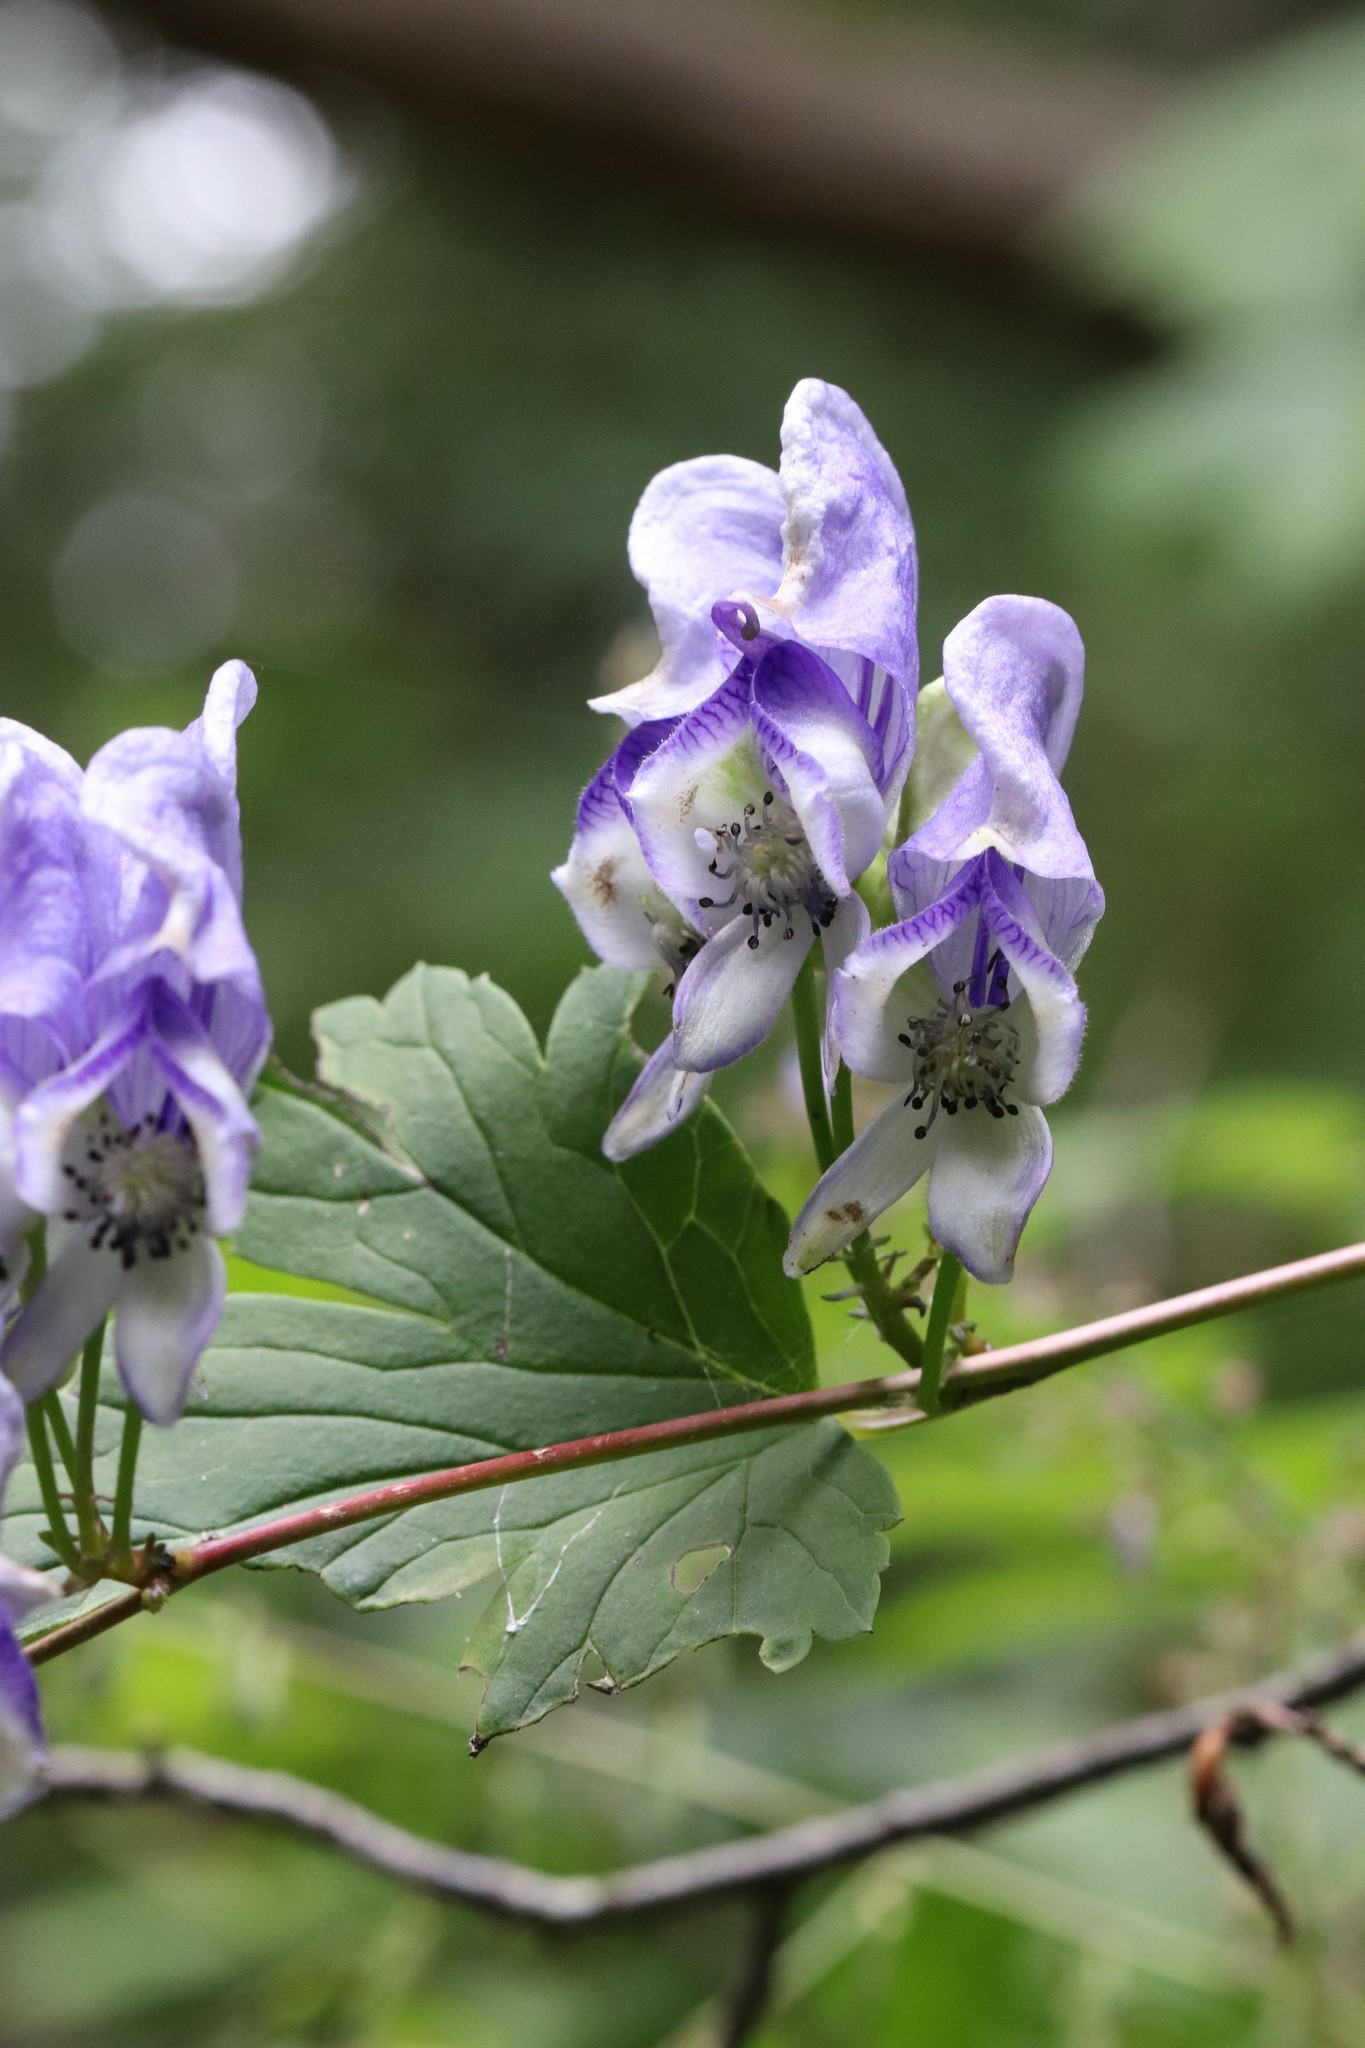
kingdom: Plantae
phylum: Tracheophyta
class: Magnoliopsida
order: Ranunculales
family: Ranunculaceae
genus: Aconitum
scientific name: Aconitum sczukinii
